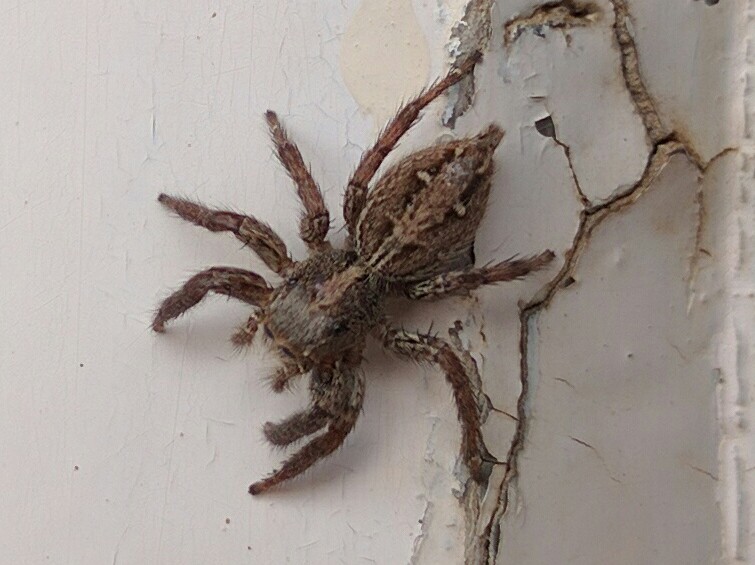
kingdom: Animalia
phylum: Arthropoda
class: Arachnida
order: Araneae
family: Salticidae
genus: Plexippus
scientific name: Plexippus paykulli
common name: Pantropical jumper
